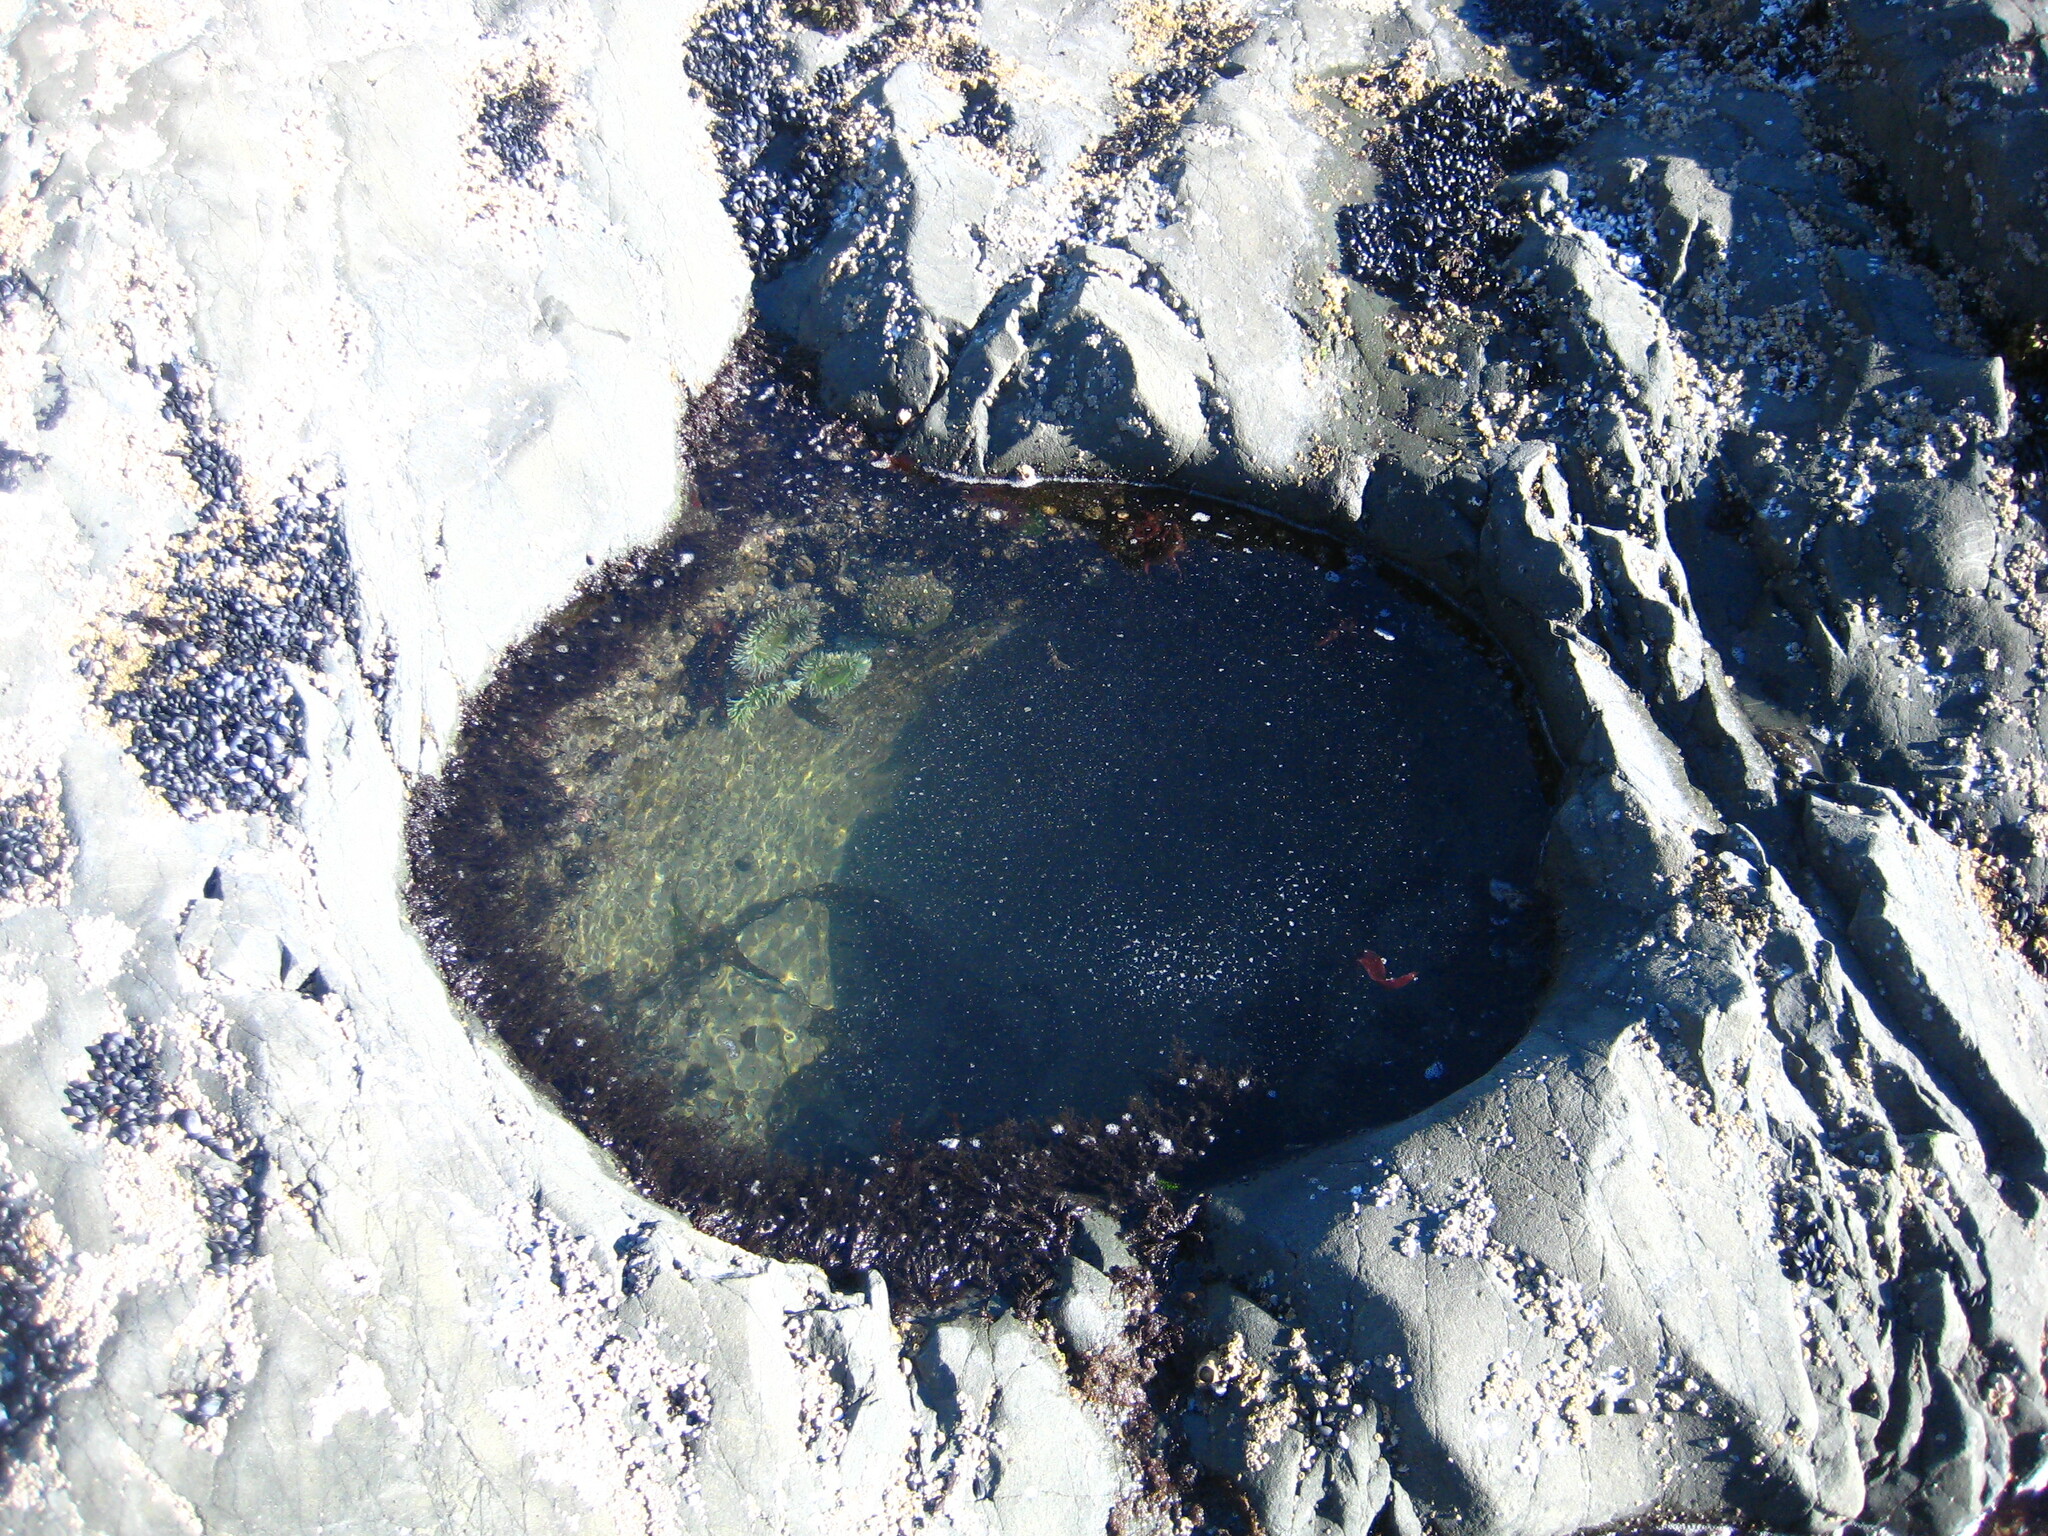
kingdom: Animalia
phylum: Cnidaria
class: Anthozoa
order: Actiniaria
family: Actiniidae
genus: Anthopleura
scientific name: Anthopleura xanthogrammica
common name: Giant green anemone
